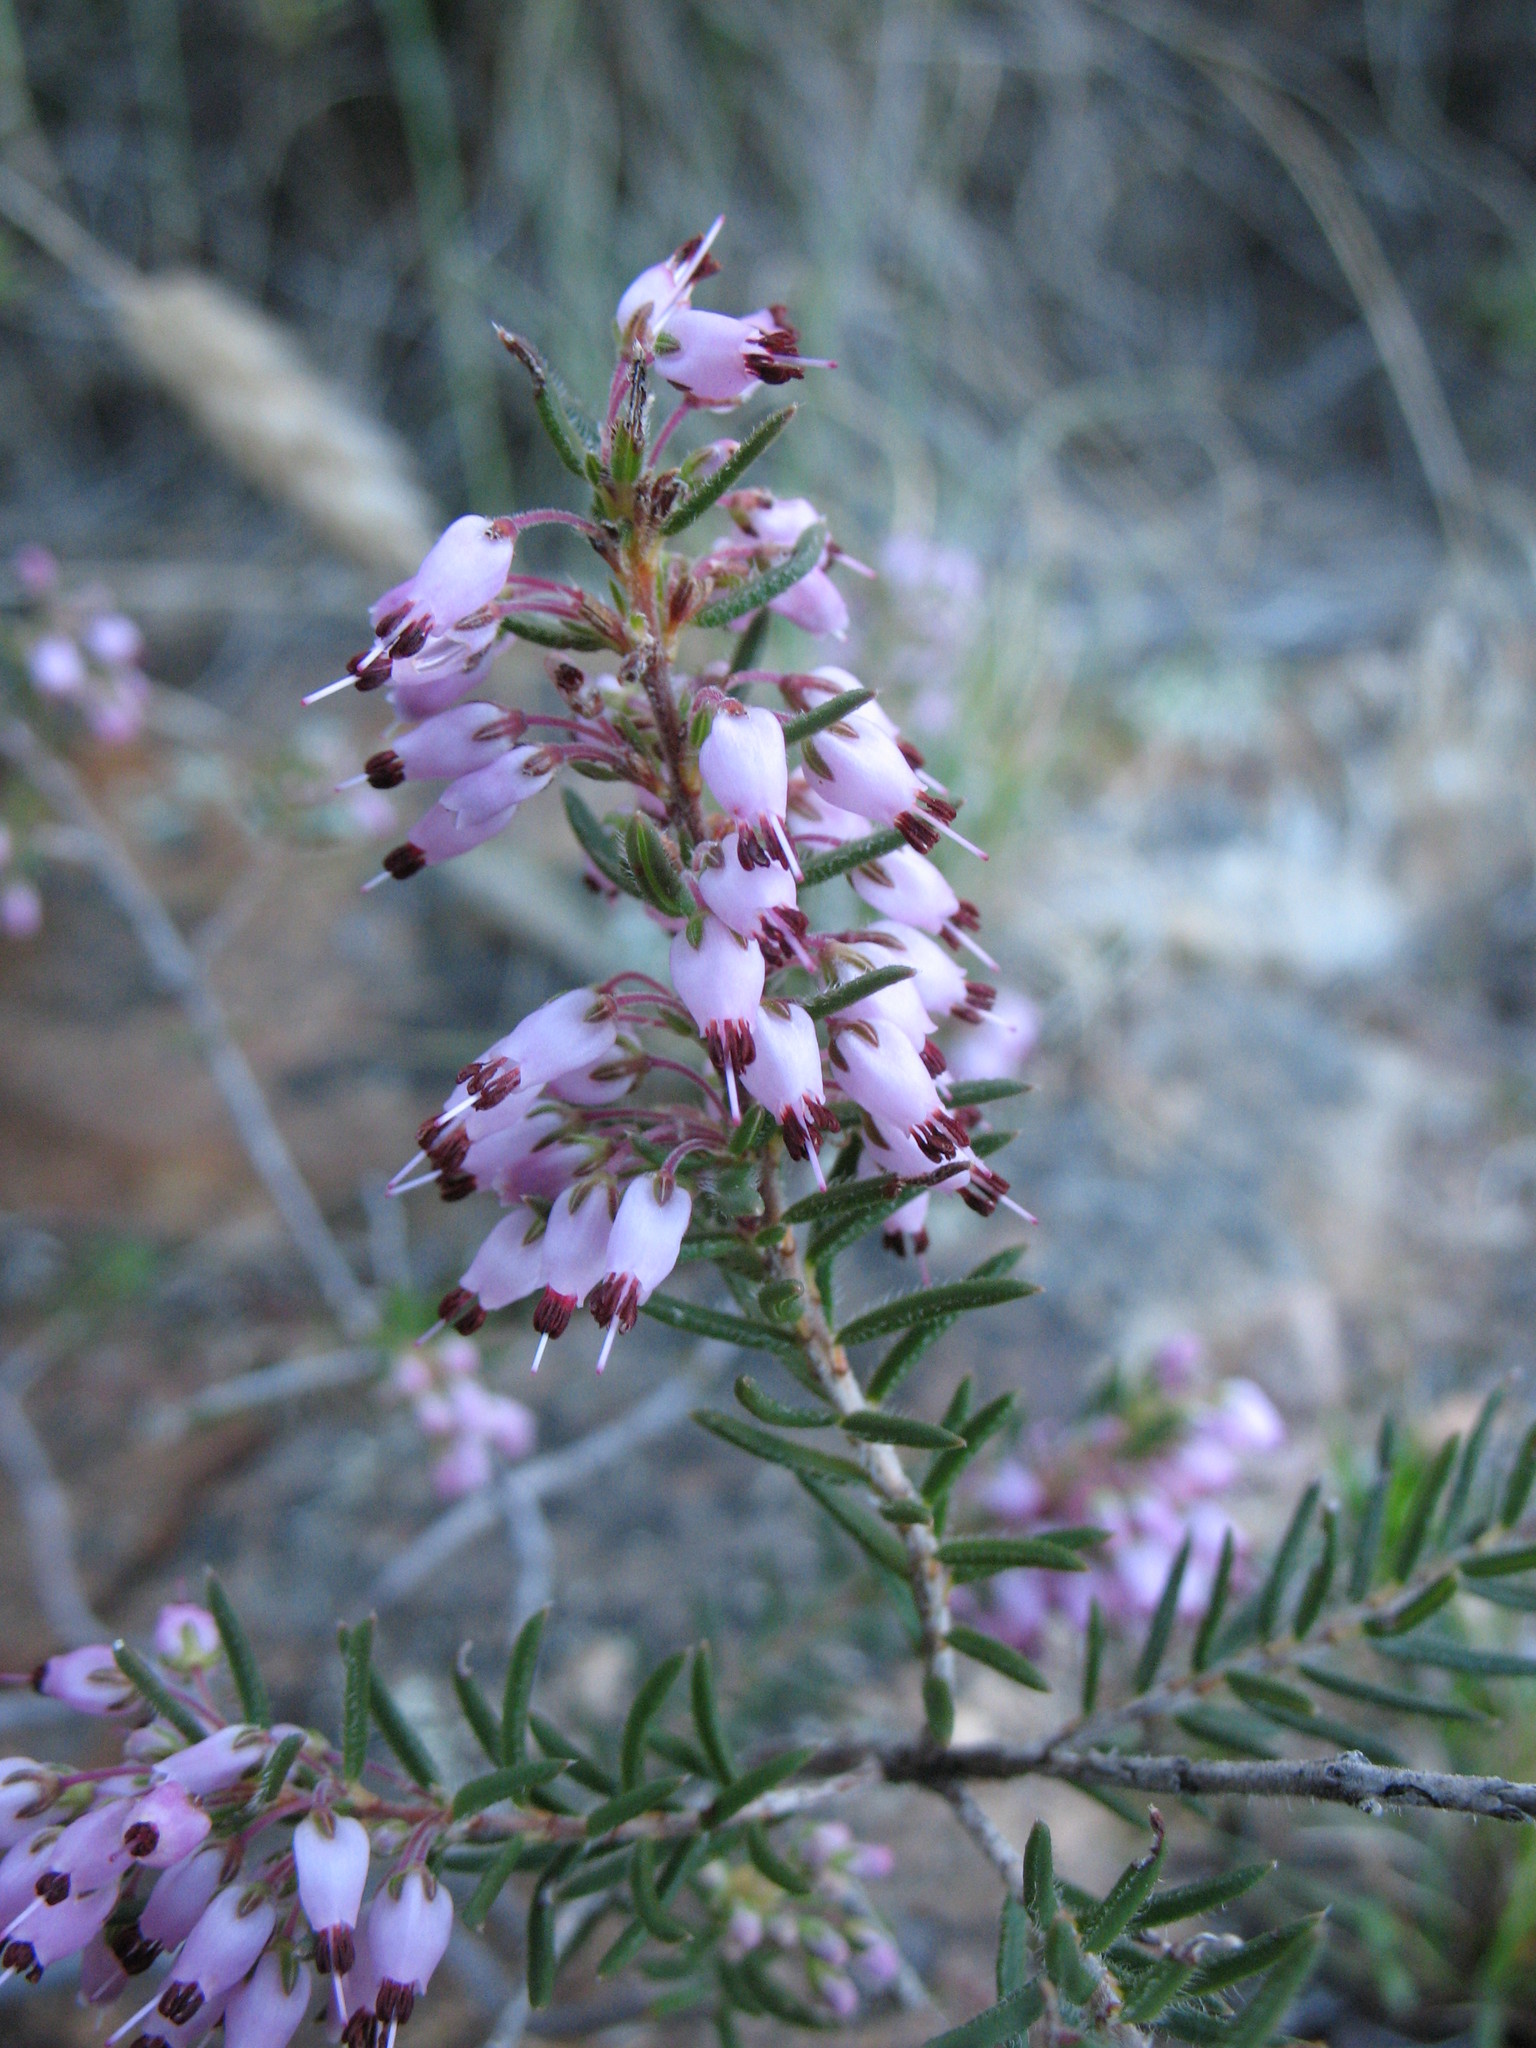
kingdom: Plantae
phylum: Tracheophyta
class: Magnoliopsida
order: Ericales
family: Ericaceae
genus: Erica
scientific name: Erica nudiflora
